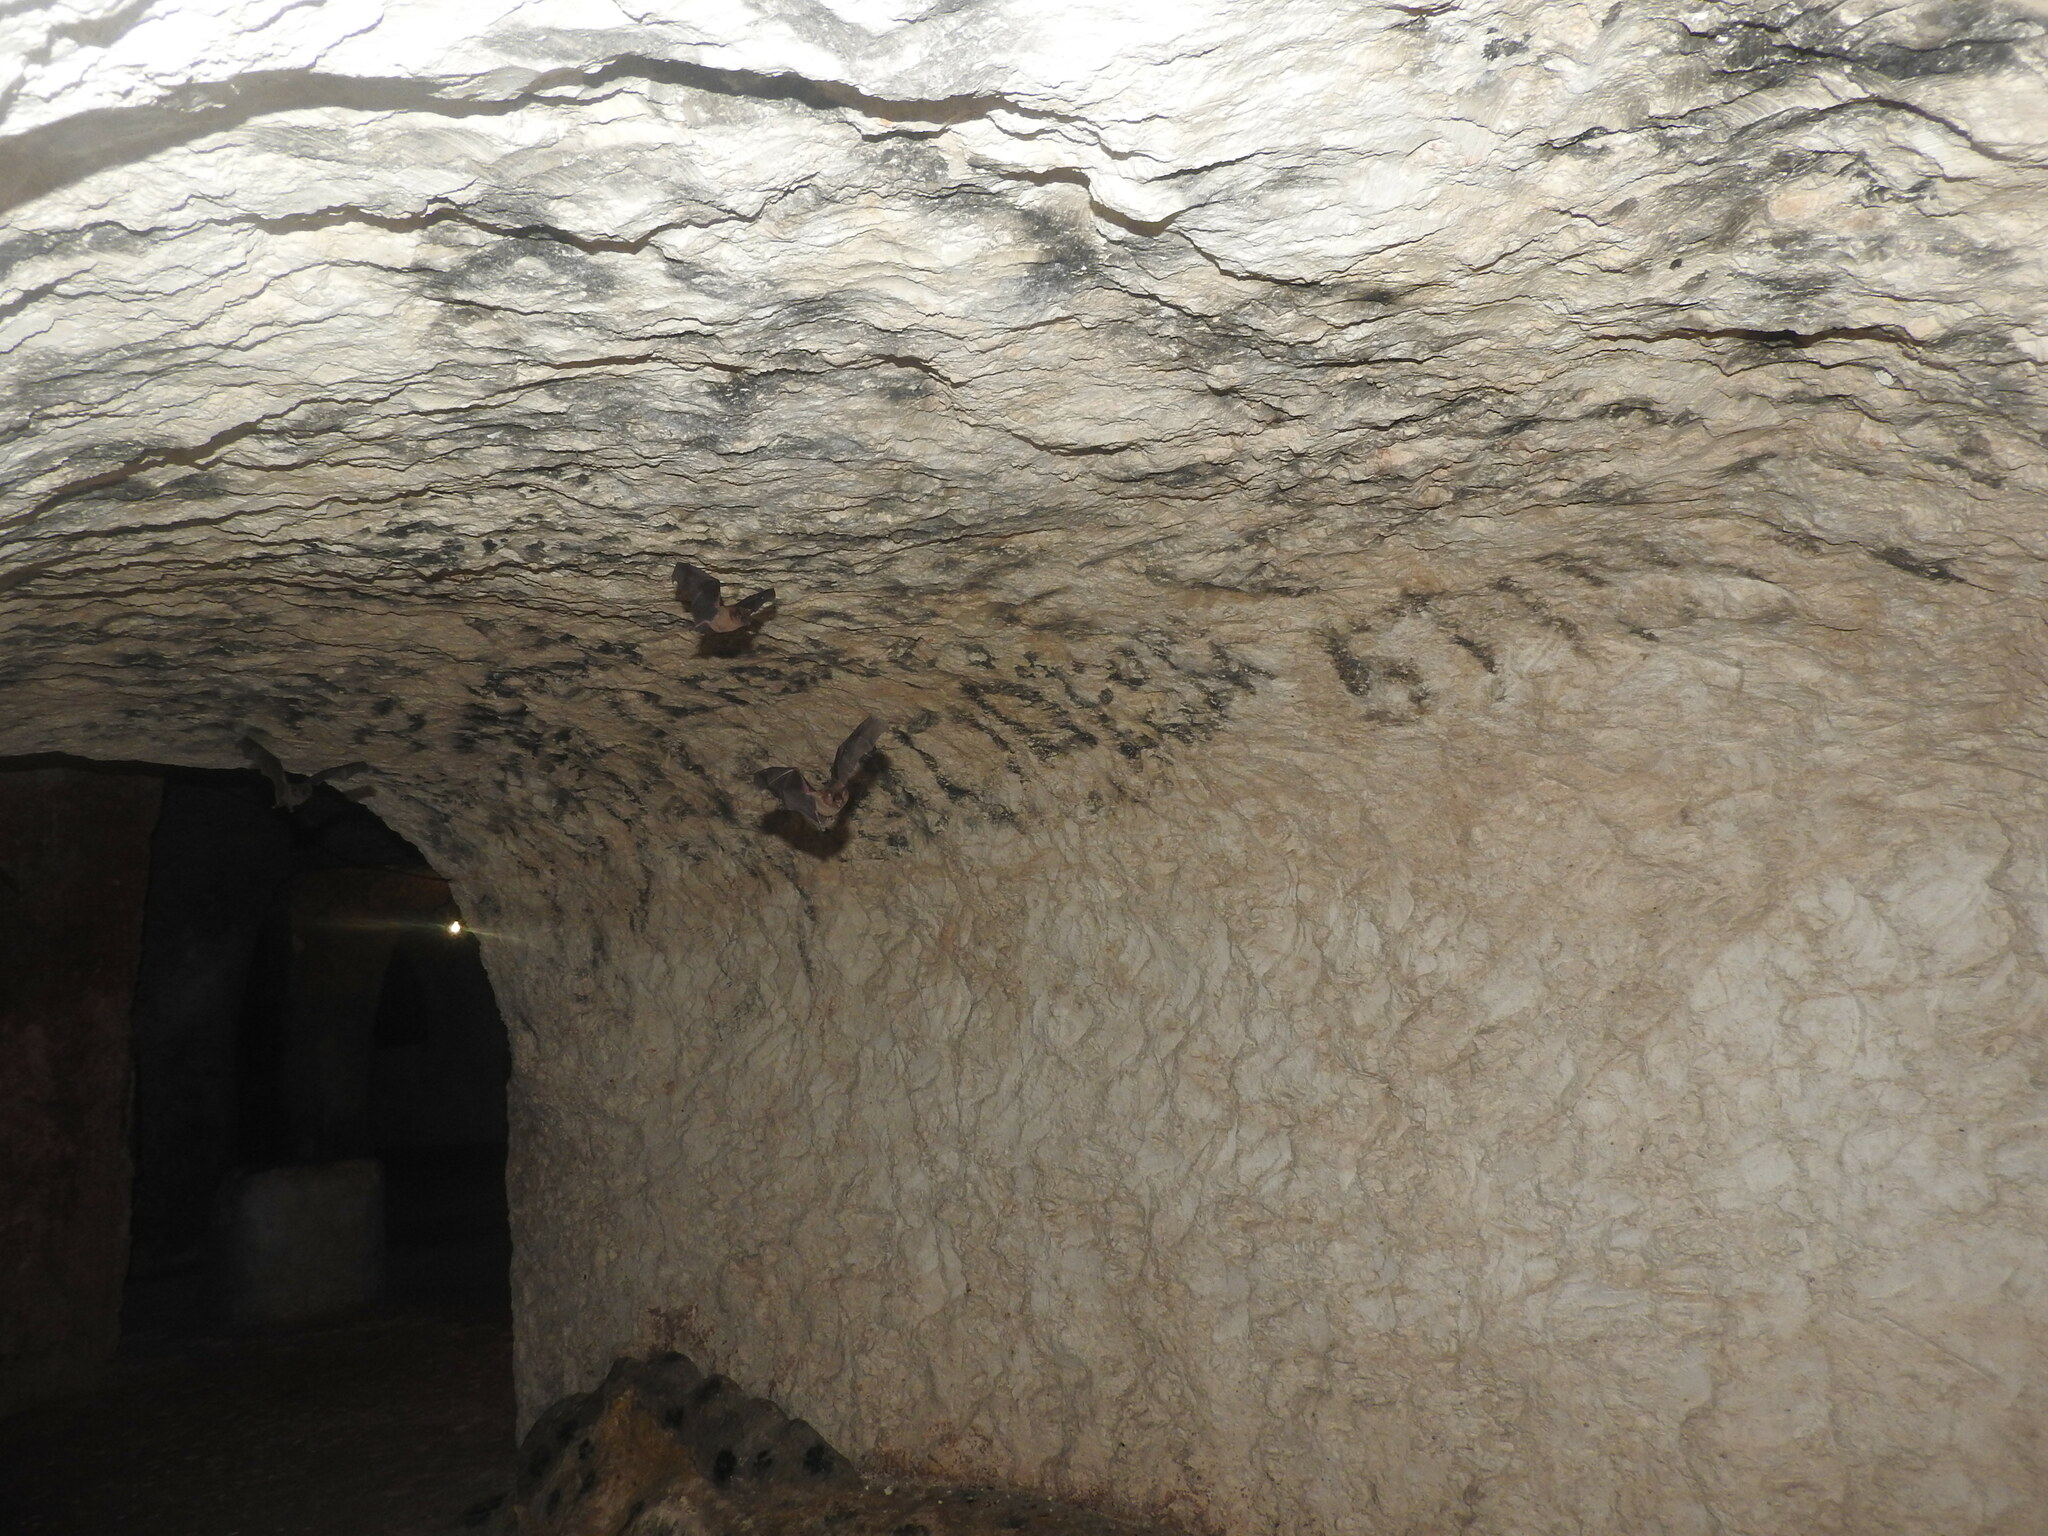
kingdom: Animalia
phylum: Chordata
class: Mammalia
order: Chiroptera
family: Phyllostomidae
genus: Glossophaga
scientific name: Glossophaga soricina
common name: Pallas's long-tongued bat
